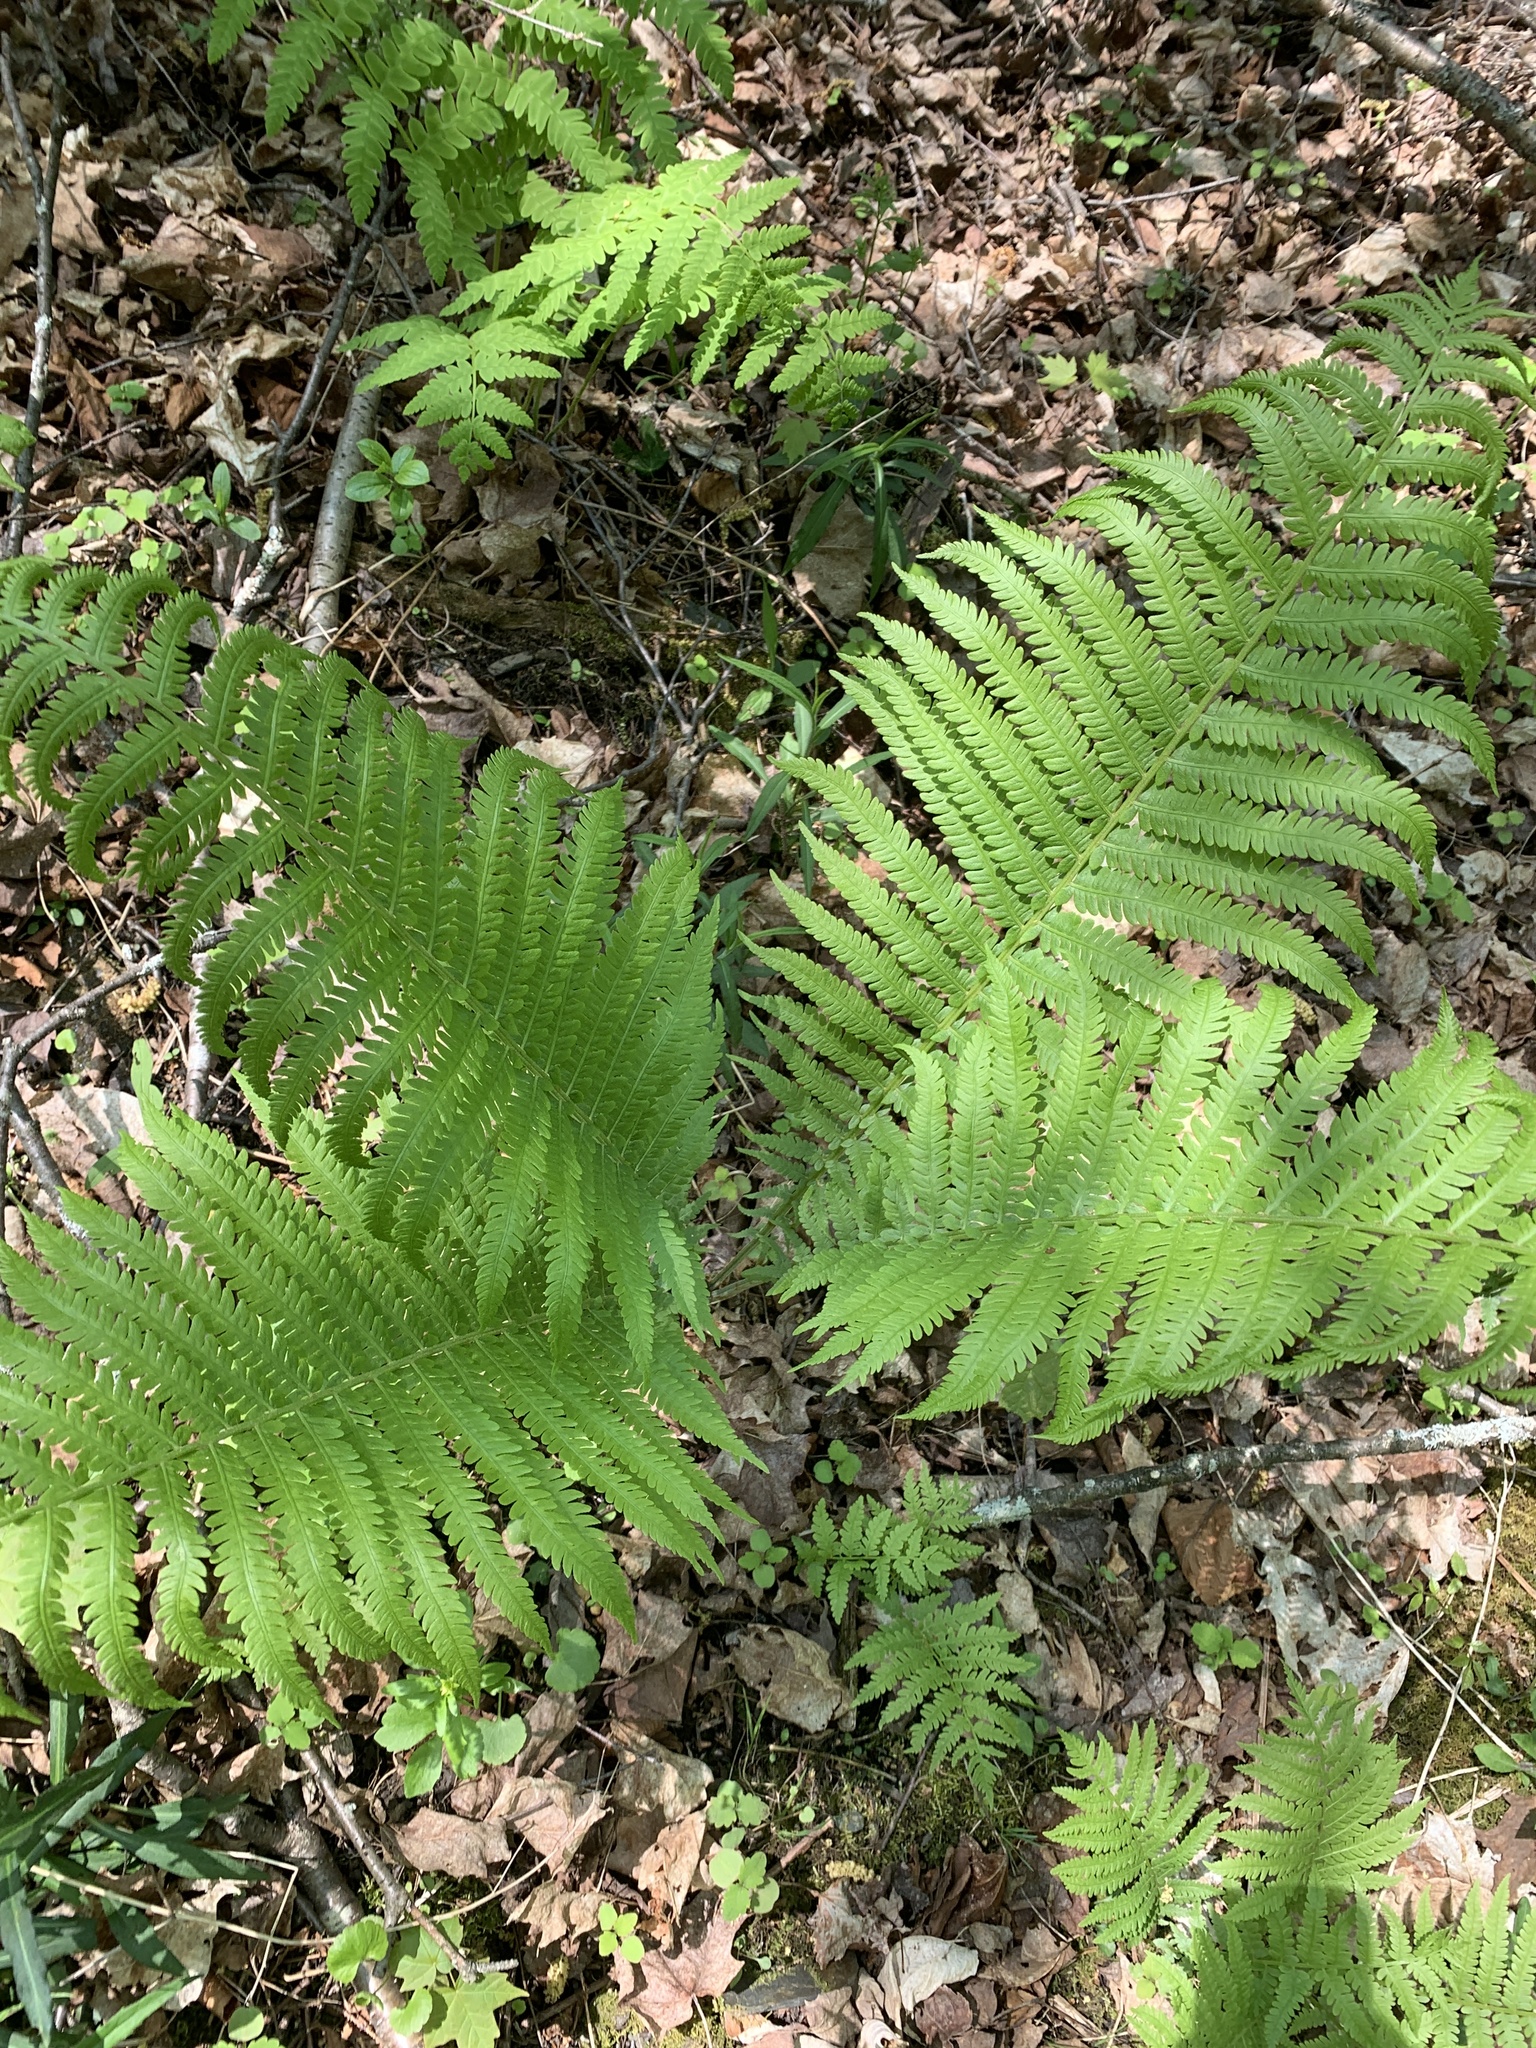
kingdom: Plantae
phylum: Tracheophyta
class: Polypodiopsida
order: Polypodiales
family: Onocleaceae
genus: Matteuccia
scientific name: Matteuccia struthiopteris
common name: Ostrich fern
